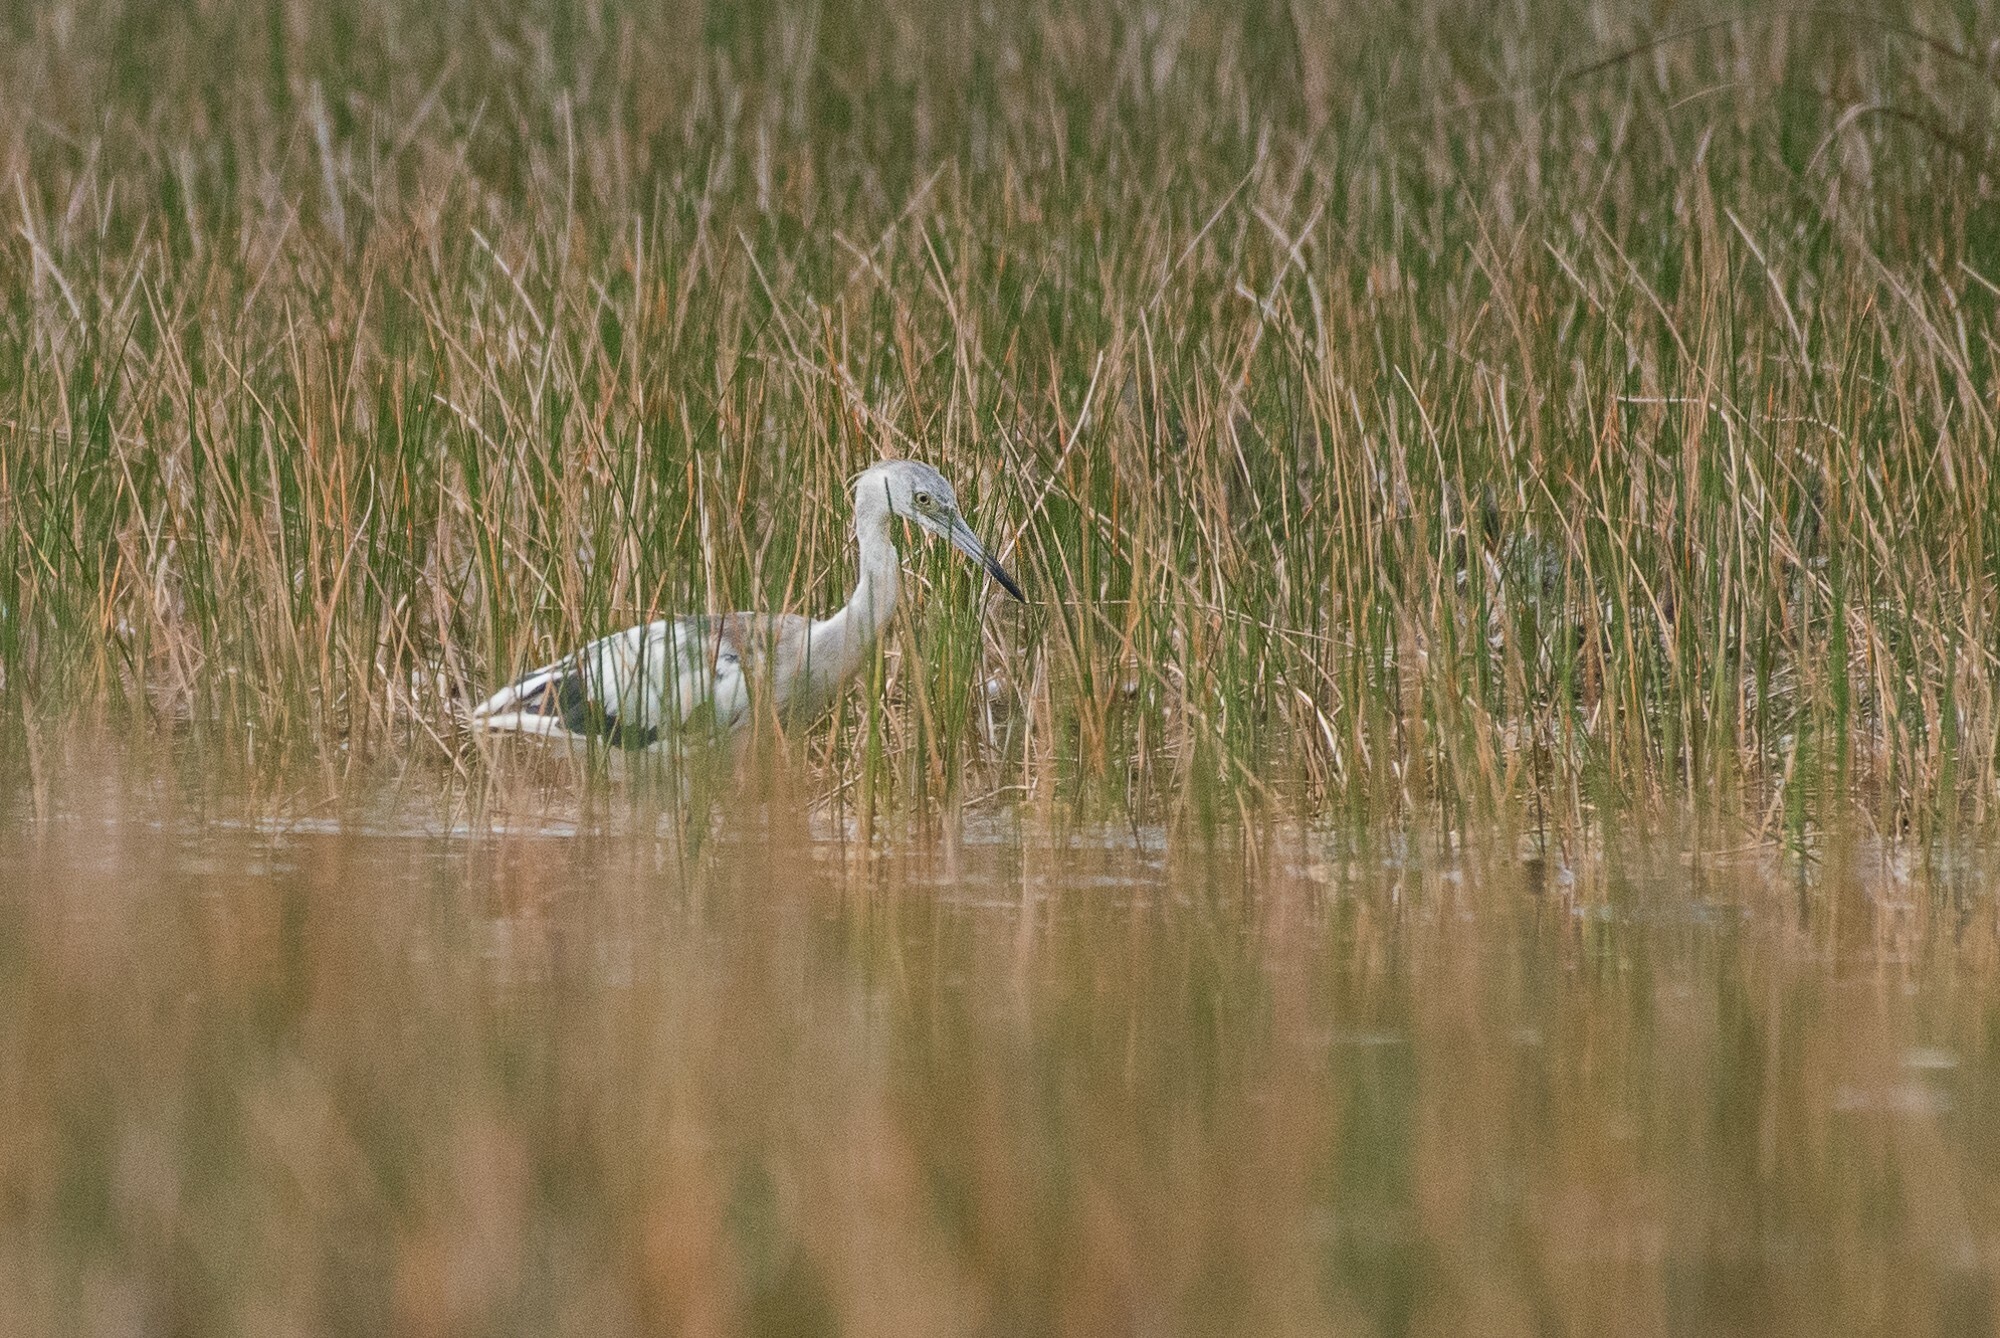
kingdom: Animalia
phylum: Chordata
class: Aves
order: Pelecaniformes
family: Ardeidae
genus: Egretta
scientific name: Egretta caerulea
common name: Little blue heron
